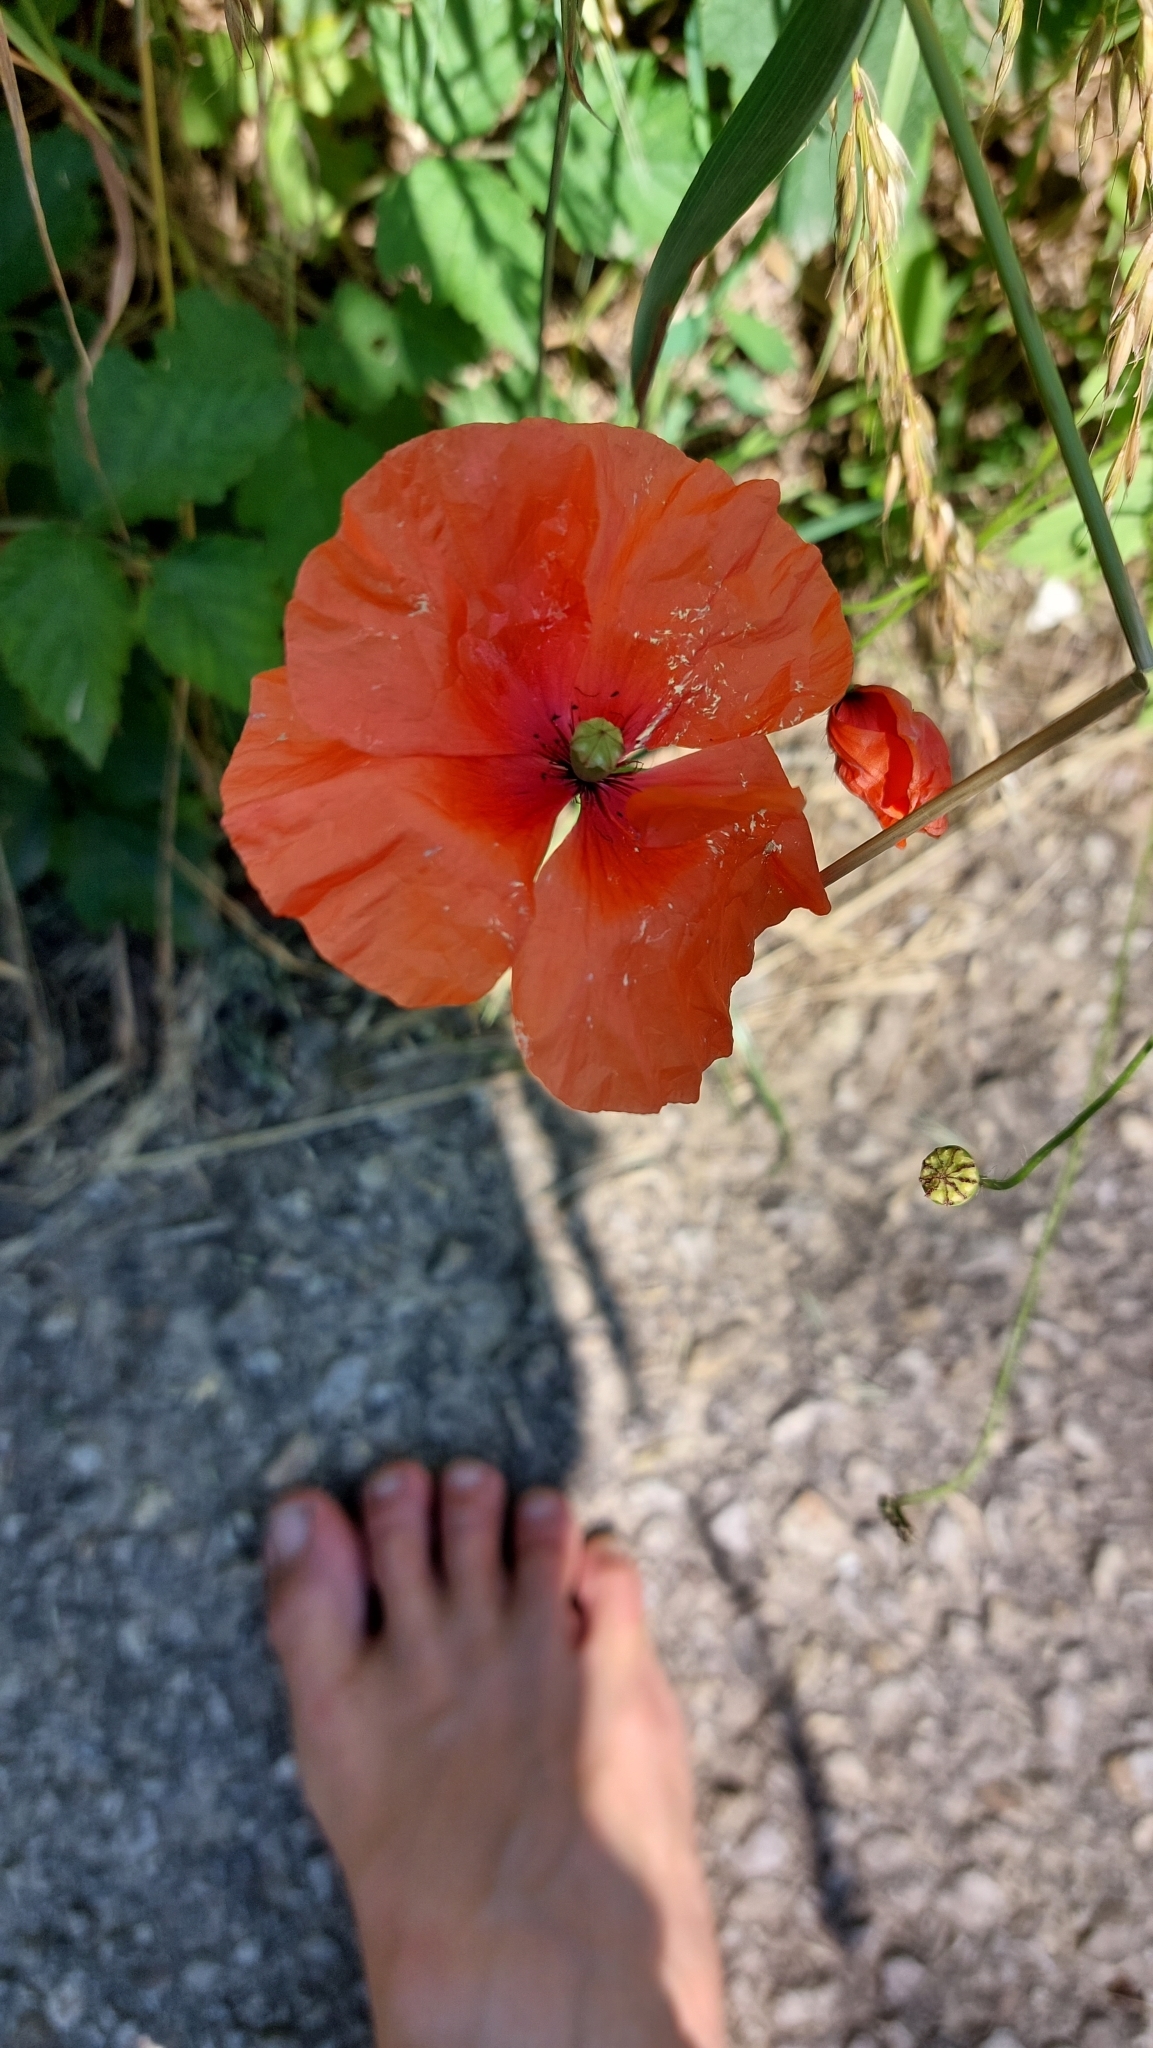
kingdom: Plantae
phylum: Tracheophyta
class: Magnoliopsida
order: Ranunculales
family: Papaveraceae
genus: Papaver
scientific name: Papaver rhoeas
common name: Corn poppy
